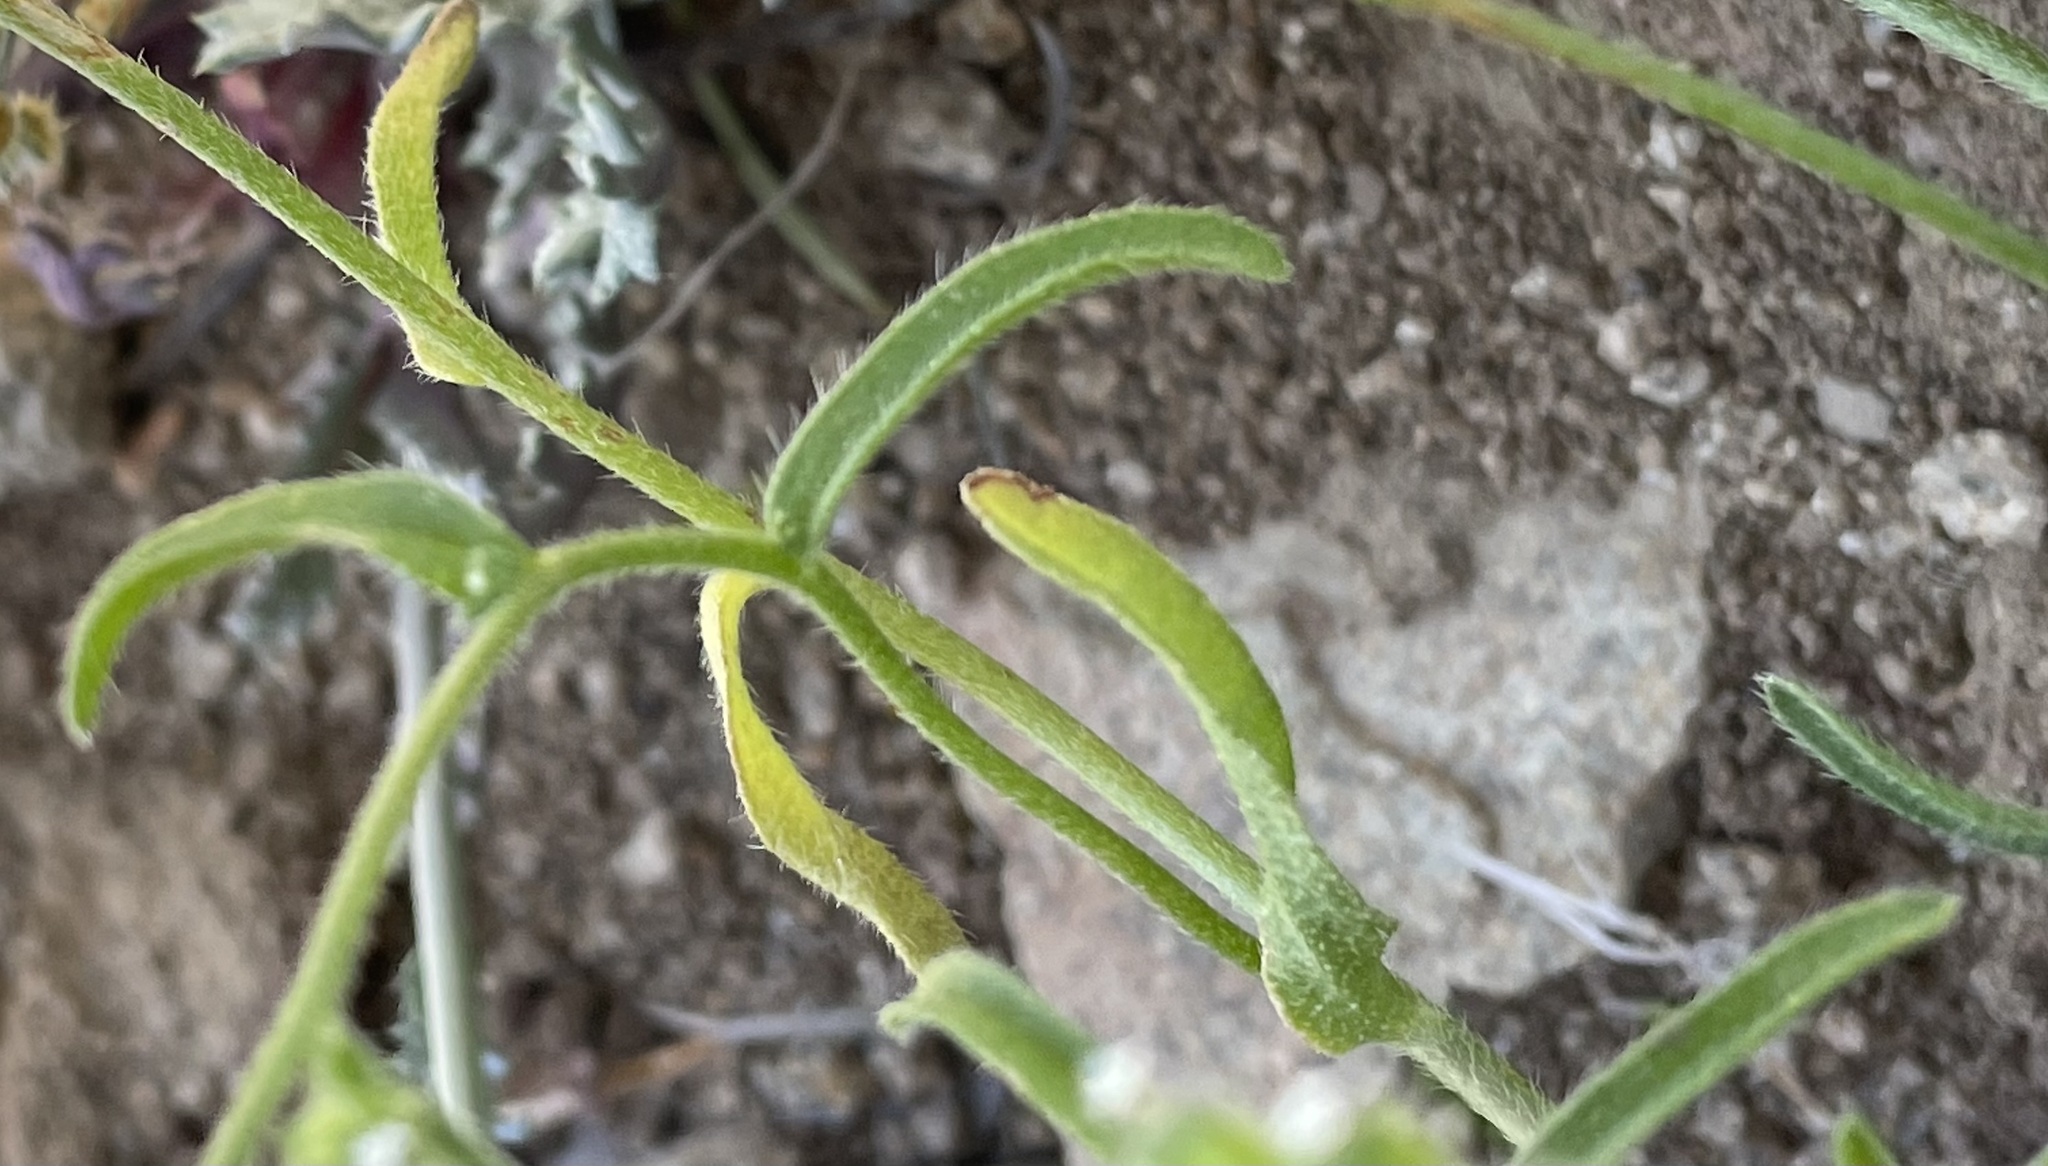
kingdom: Plantae
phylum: Tracheophyta
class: Magnoliopsida
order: Boraginales
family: Boraginaceae
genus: Cryptantha
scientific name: Cryptantha pterocarya
